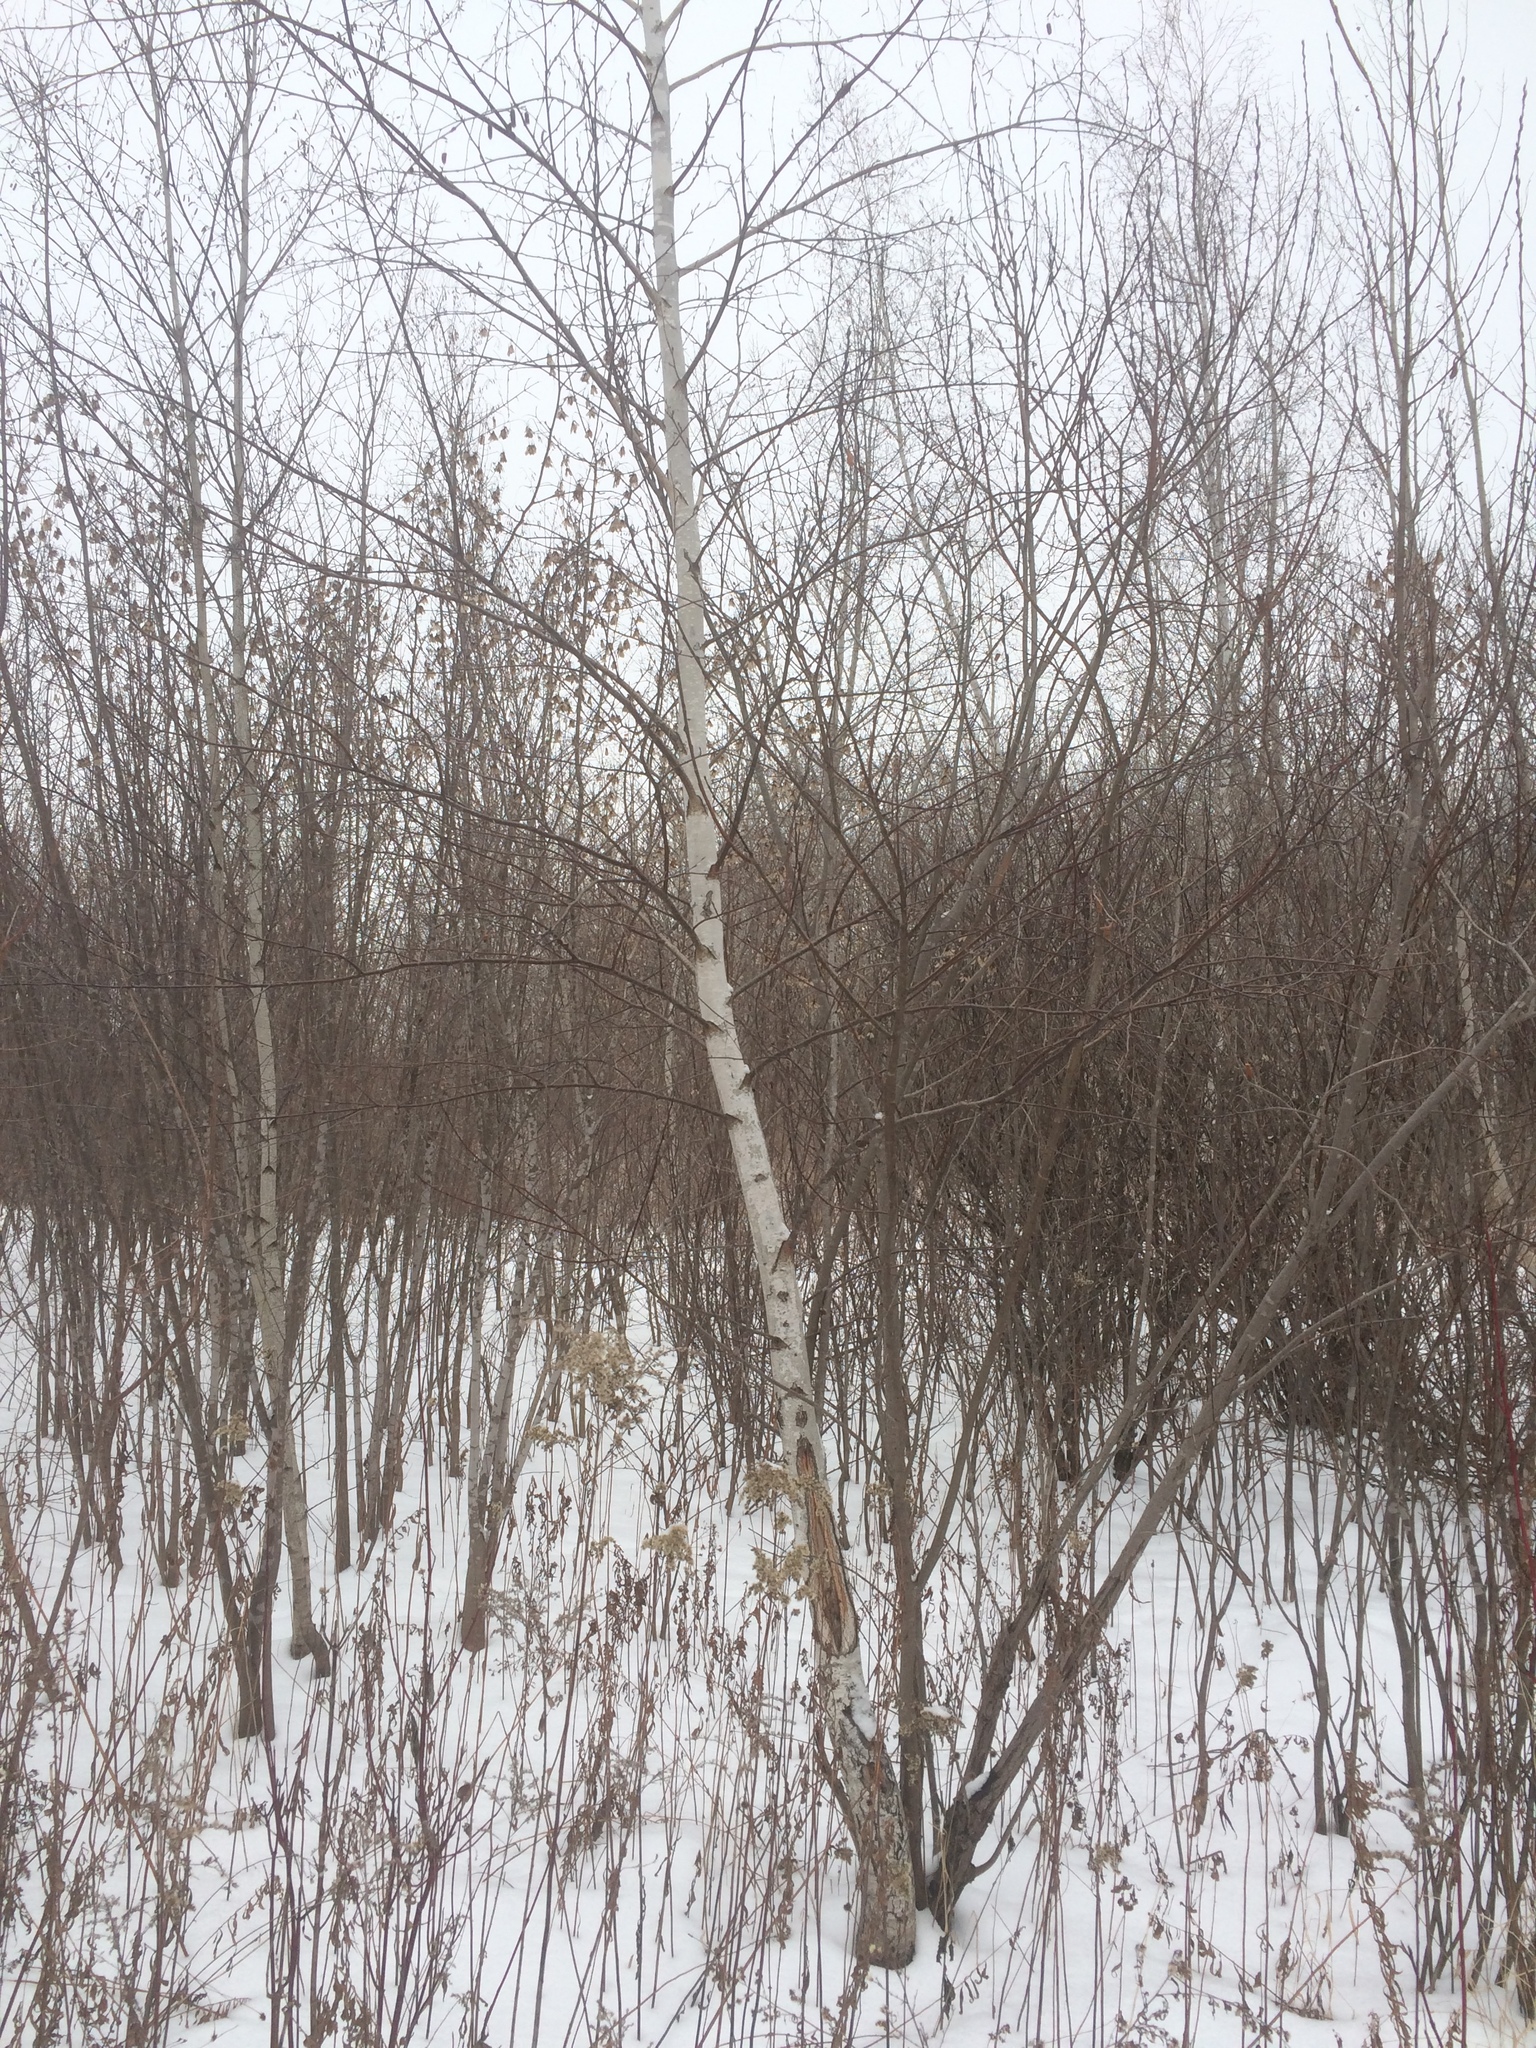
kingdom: Plantae
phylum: Tracheophyta
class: Magnoliopsida
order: Fagales
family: Betulaceae
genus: Betula
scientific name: Betula pendula
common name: Silver birch
